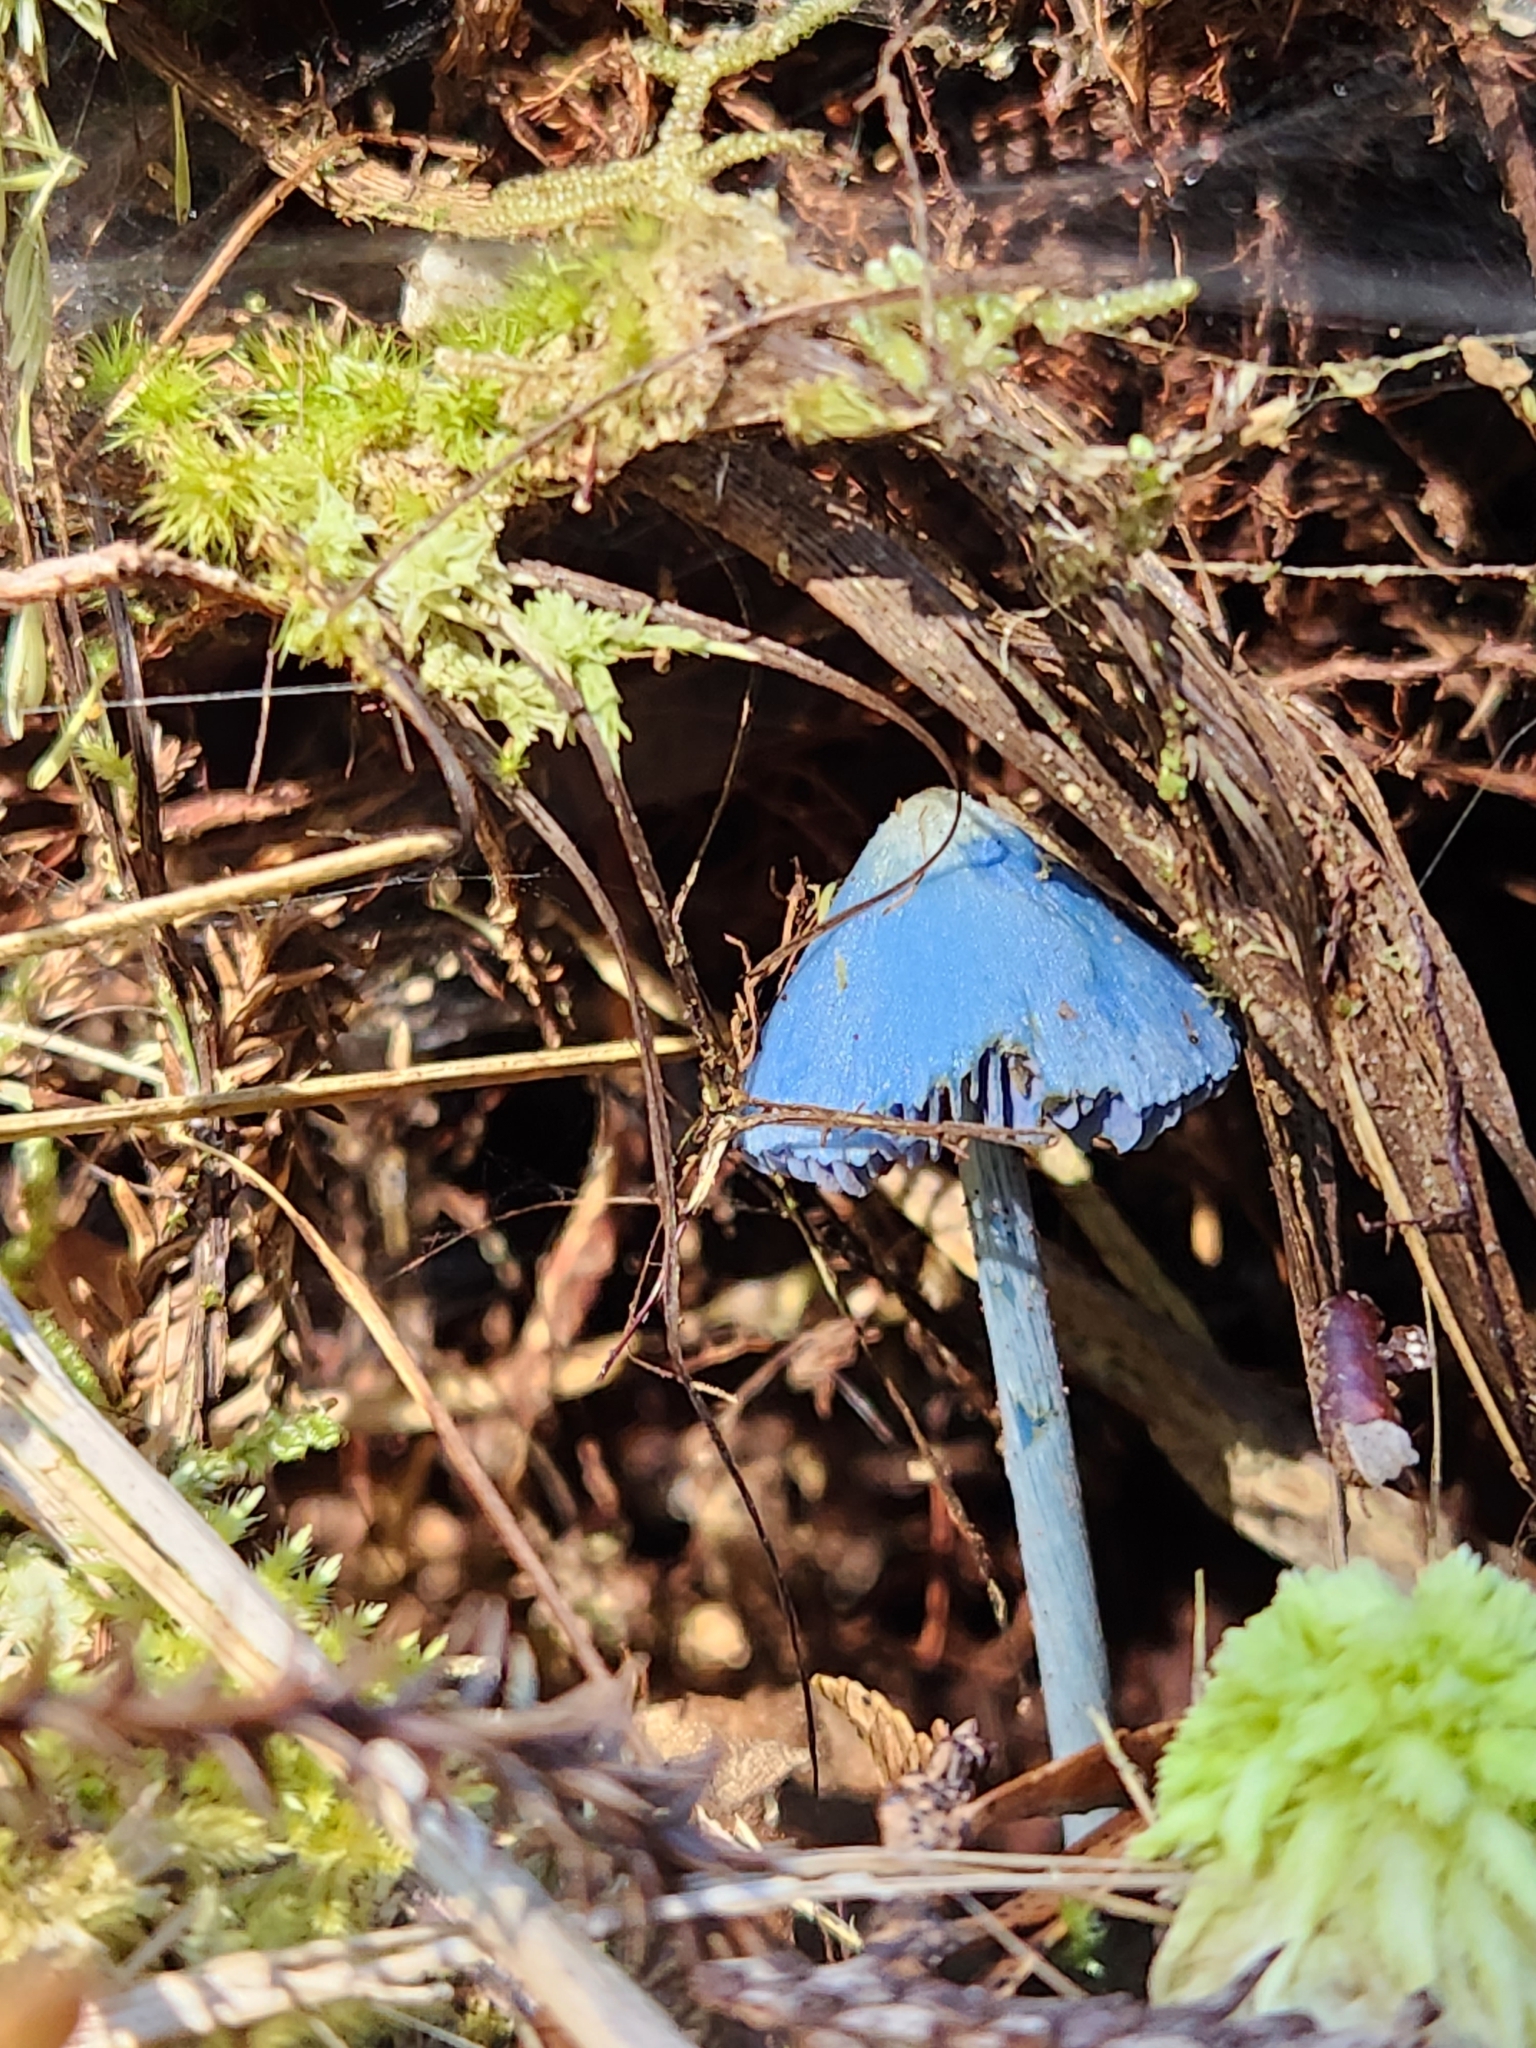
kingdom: Fungi
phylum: Basidiomycota
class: Agaricomycetes
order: Agaricales
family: Entolomataceae
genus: Entoloma
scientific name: Entoloma hochstetteri
